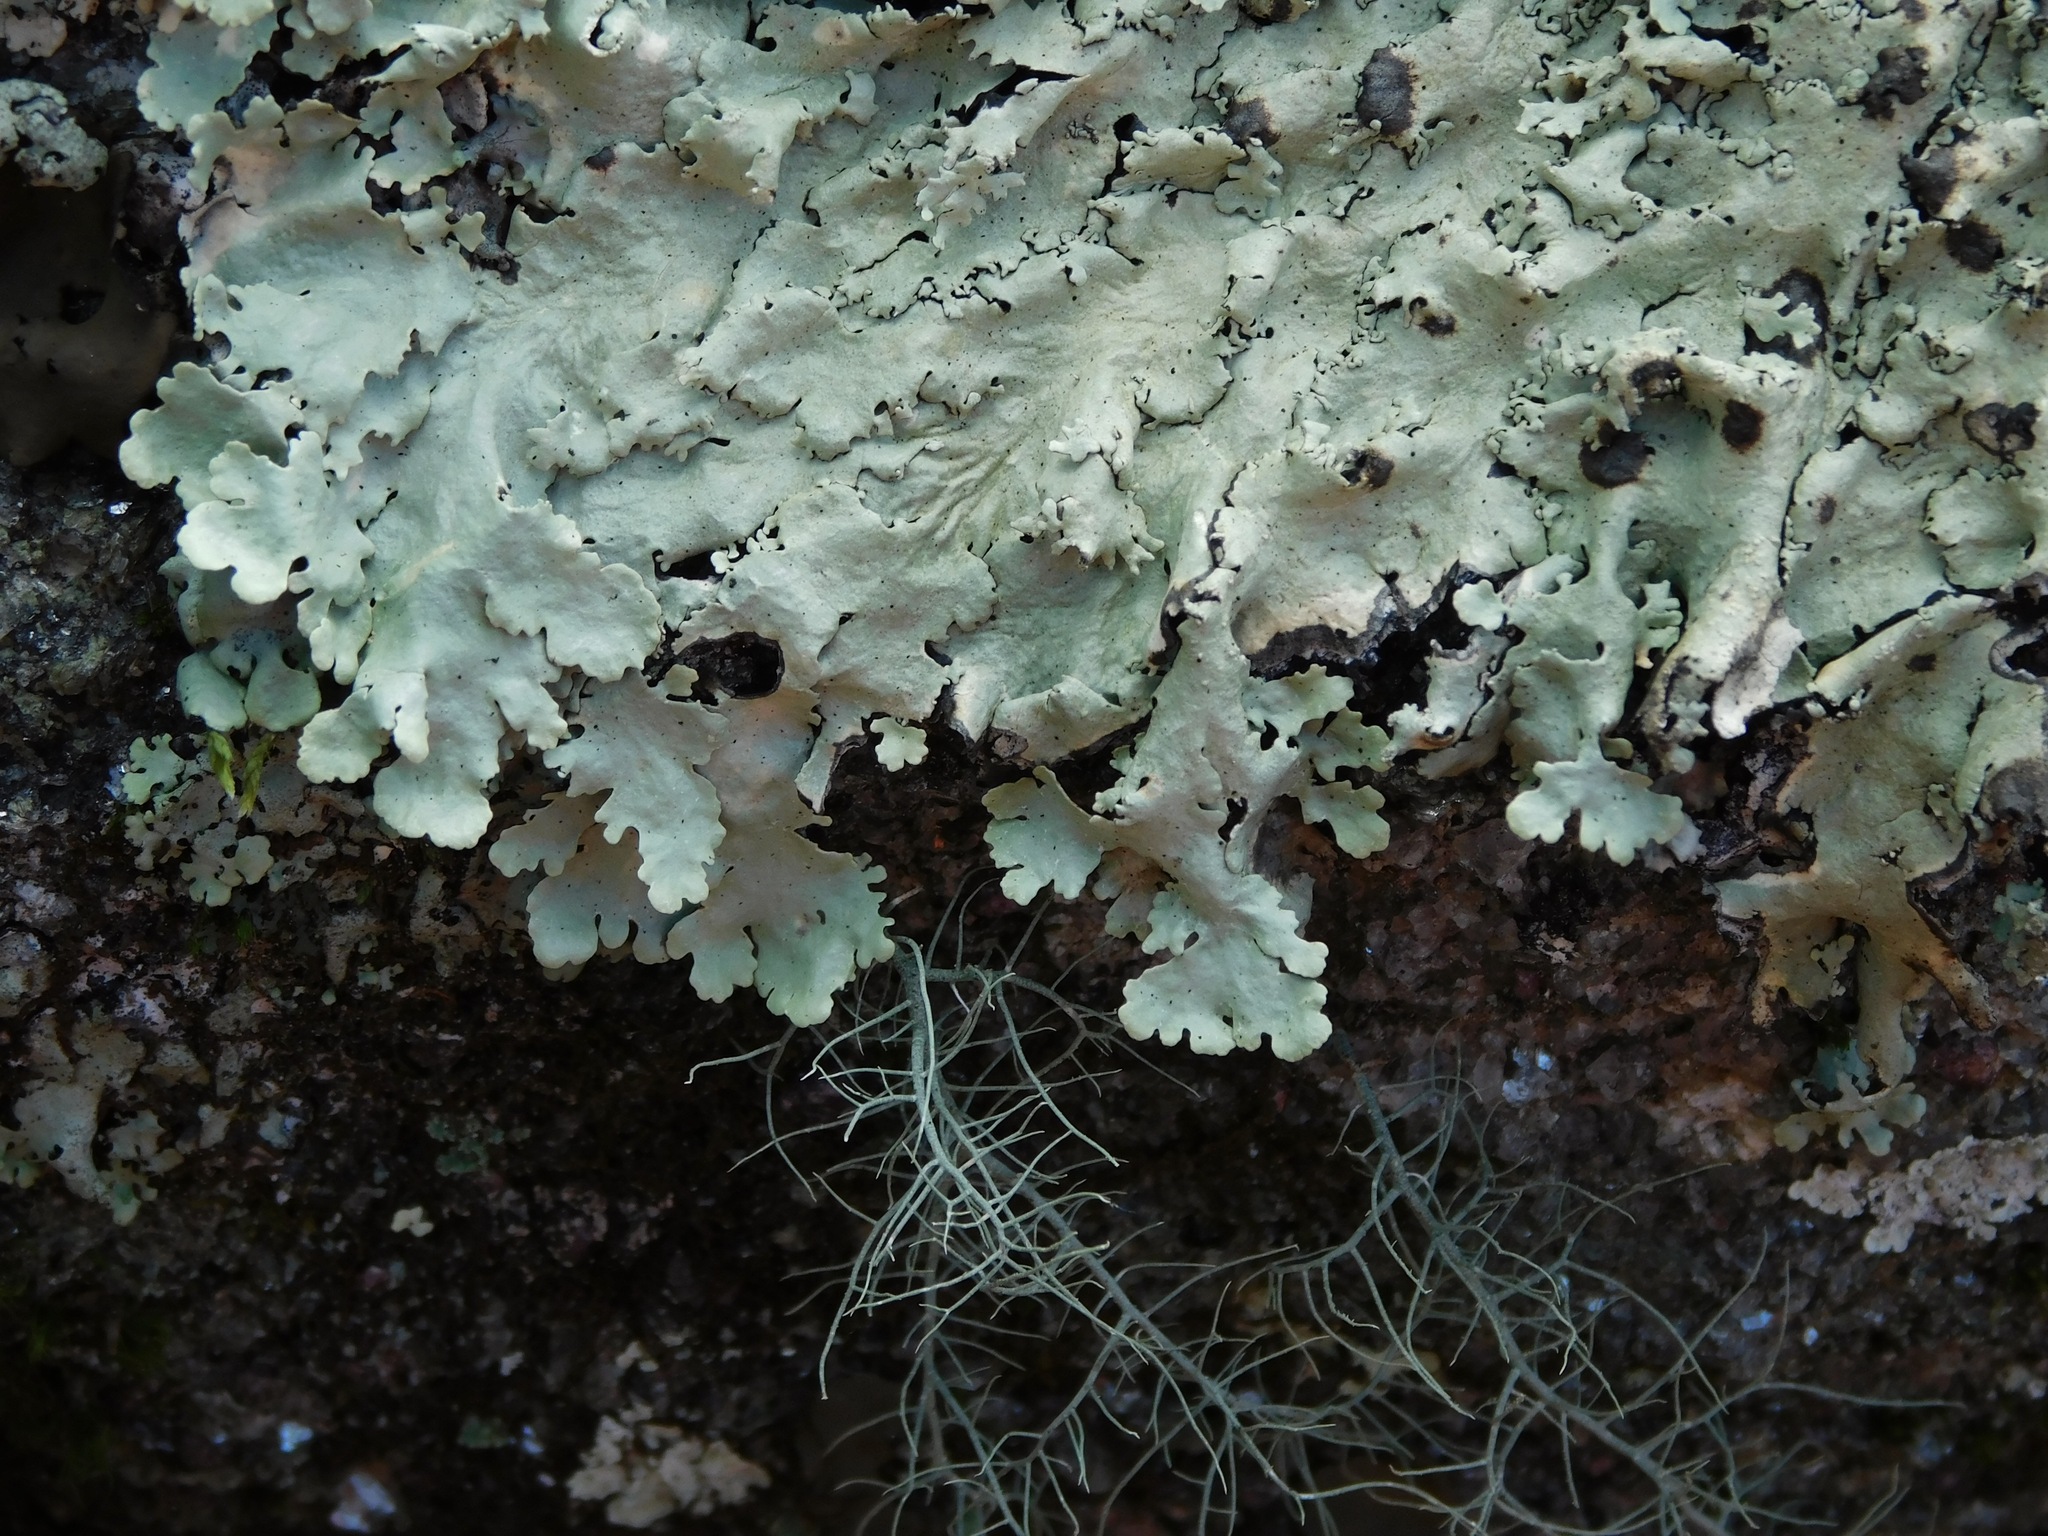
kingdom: Fungi
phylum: Ascomycota
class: Lecanoromycetes
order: Lecanorales
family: Parmeliaceae
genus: Flavoparmelia
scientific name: Flavoparmelia caperata
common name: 40-mile per hour lichen
